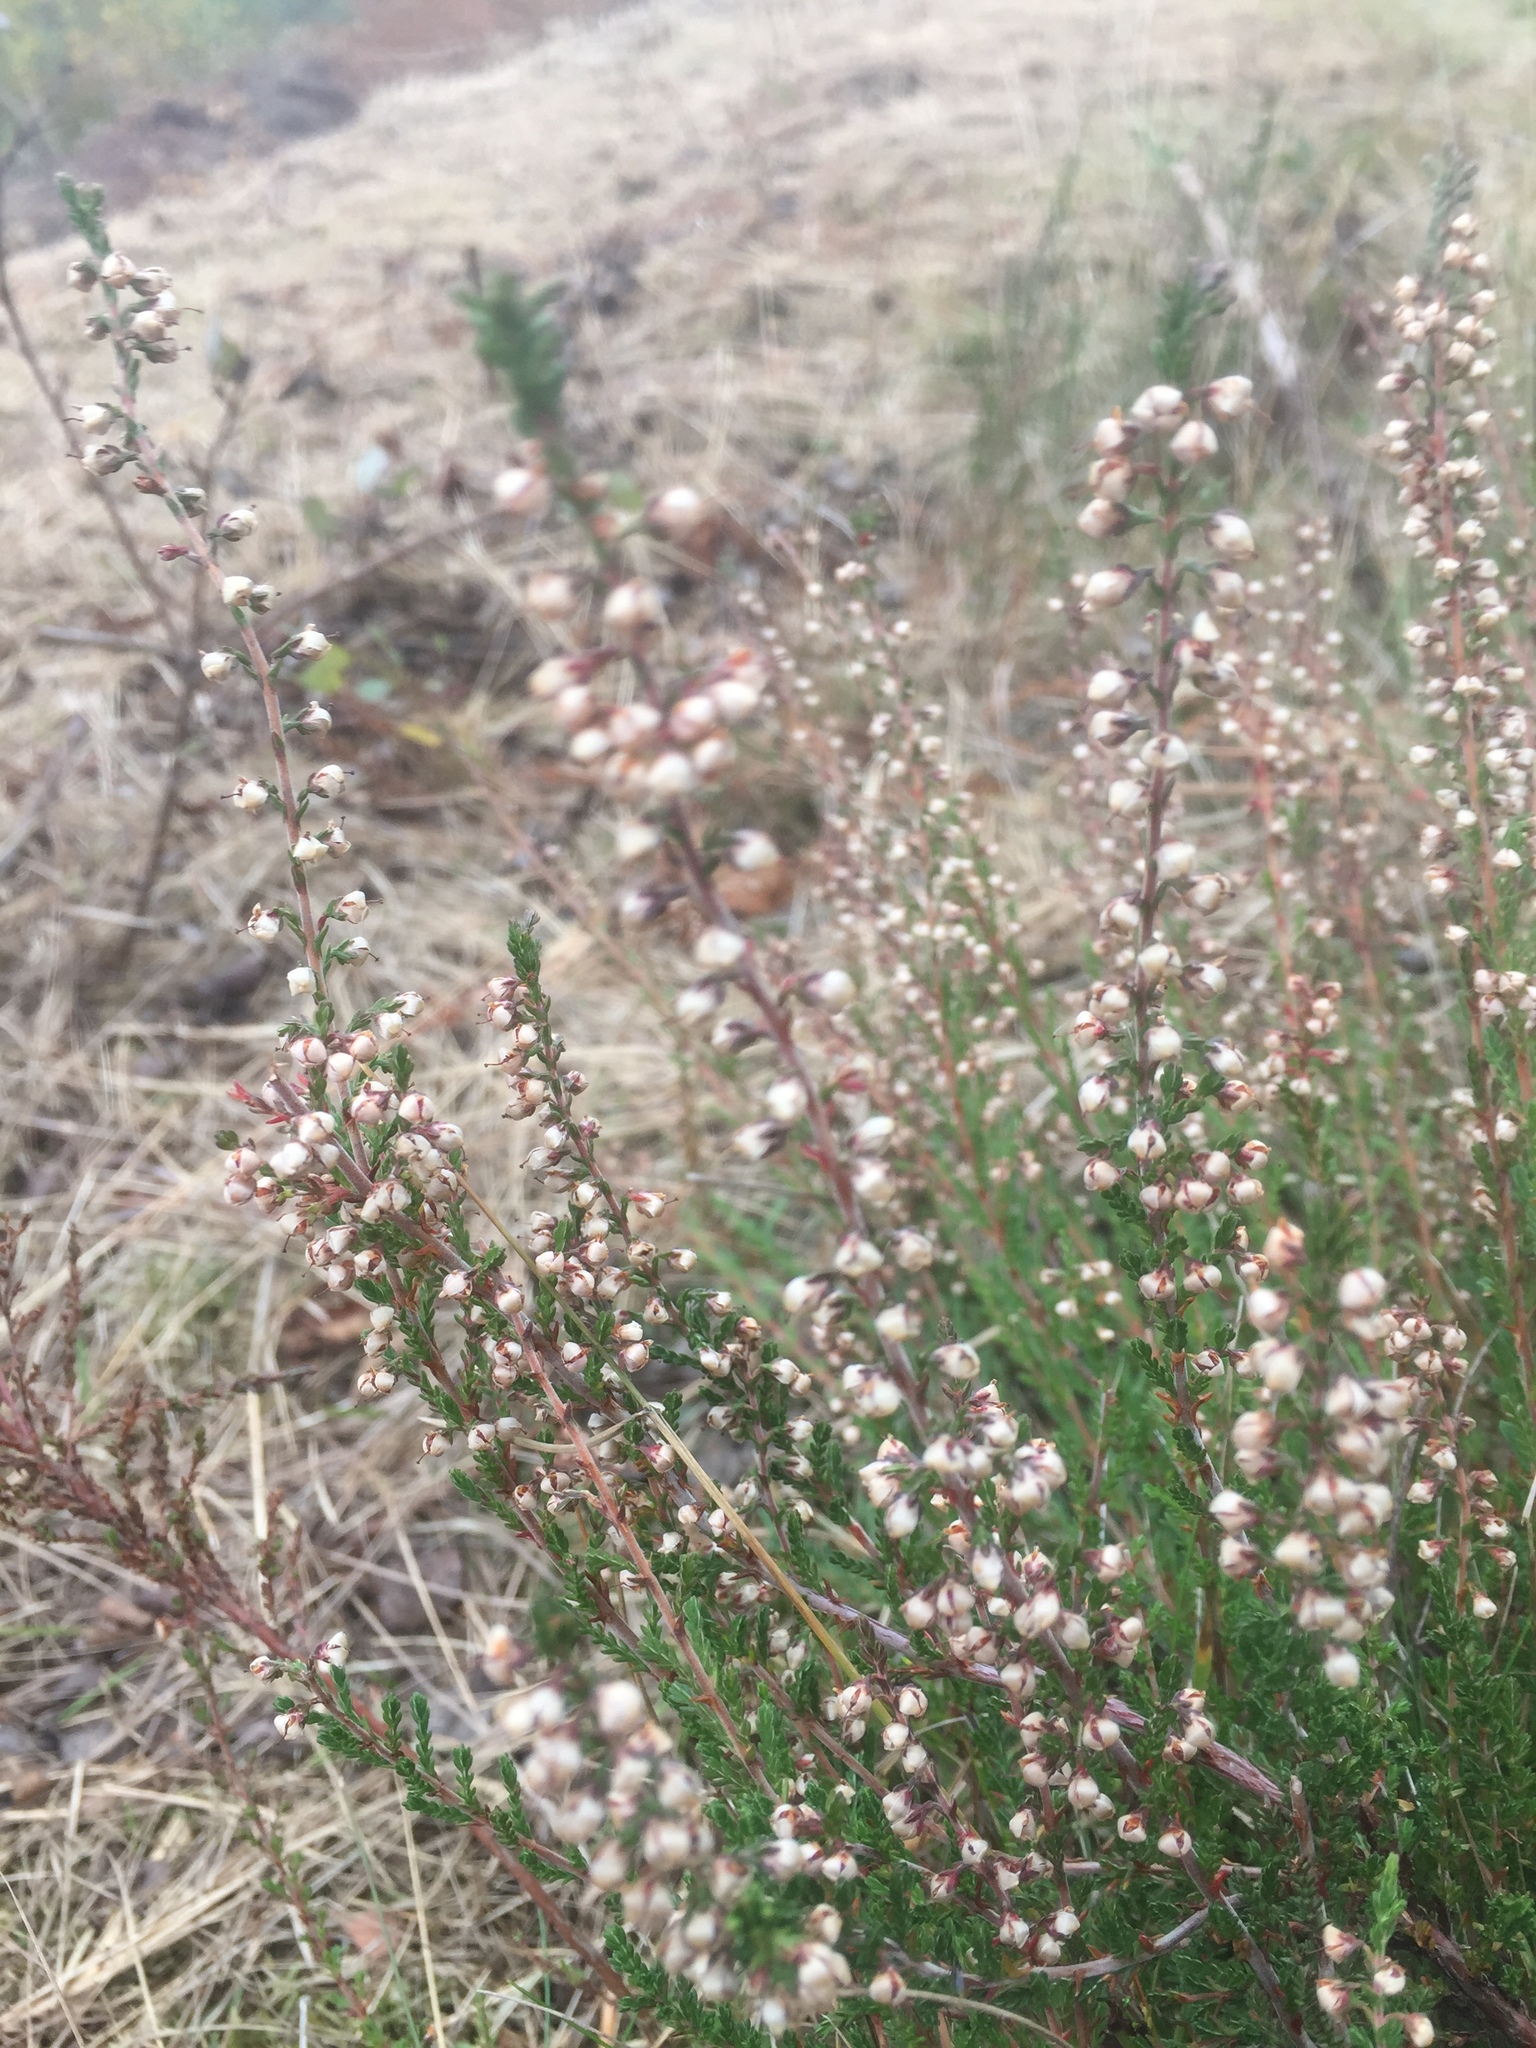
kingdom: Plantae
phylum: Tracheophyta
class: Magnoliopsida
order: Ericales
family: Ericaceae
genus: Calluna
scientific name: Calluna vulgaris
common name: Heather
